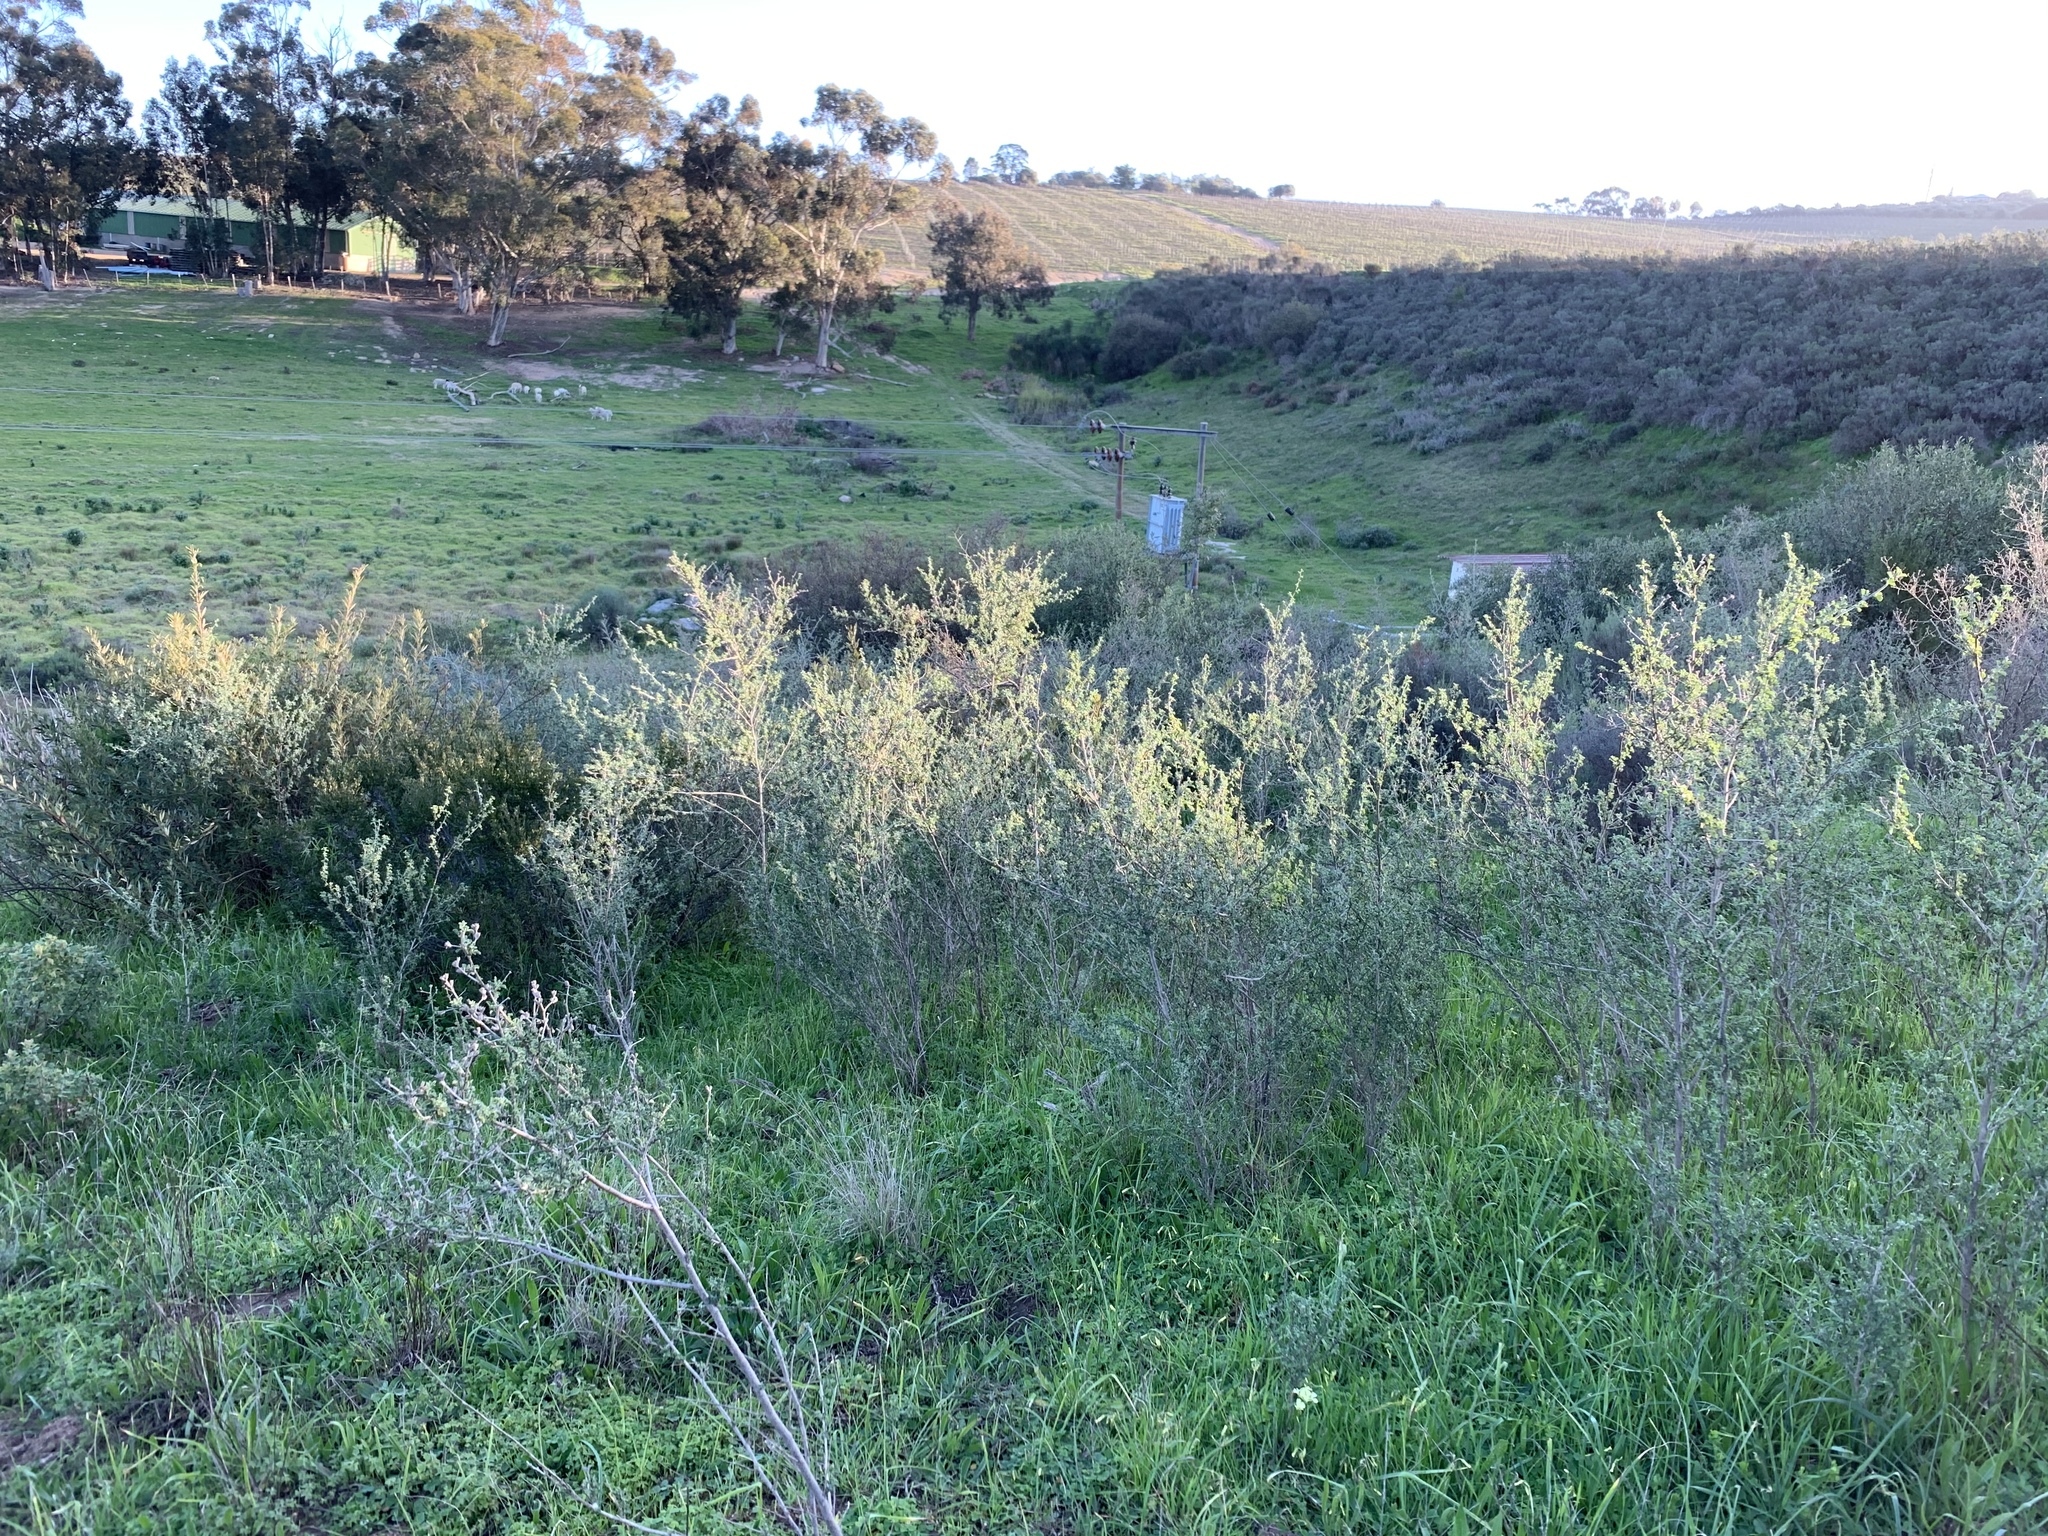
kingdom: Plantae
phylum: Tracheophyta
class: Magnoliopsida
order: Fabales
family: Fabaceae
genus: Psoralea
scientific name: Psoralea hirta
